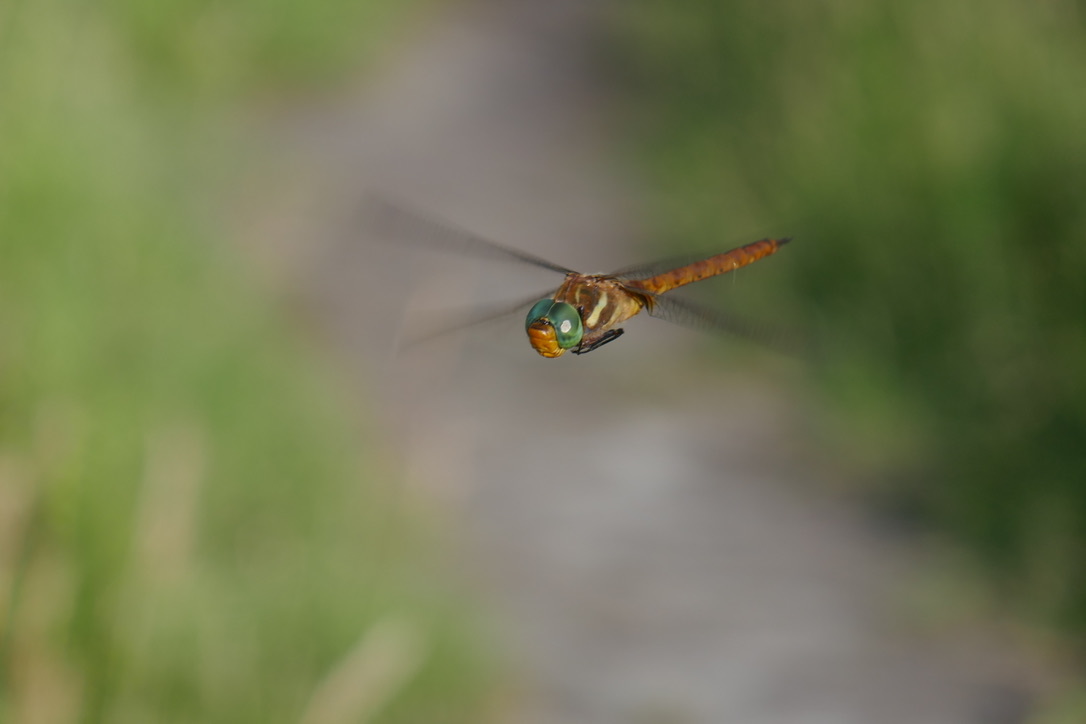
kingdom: Animalia
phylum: Arthropoda
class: Insecta
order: Odonata
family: Aeshnidae
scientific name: Aeshnidae
